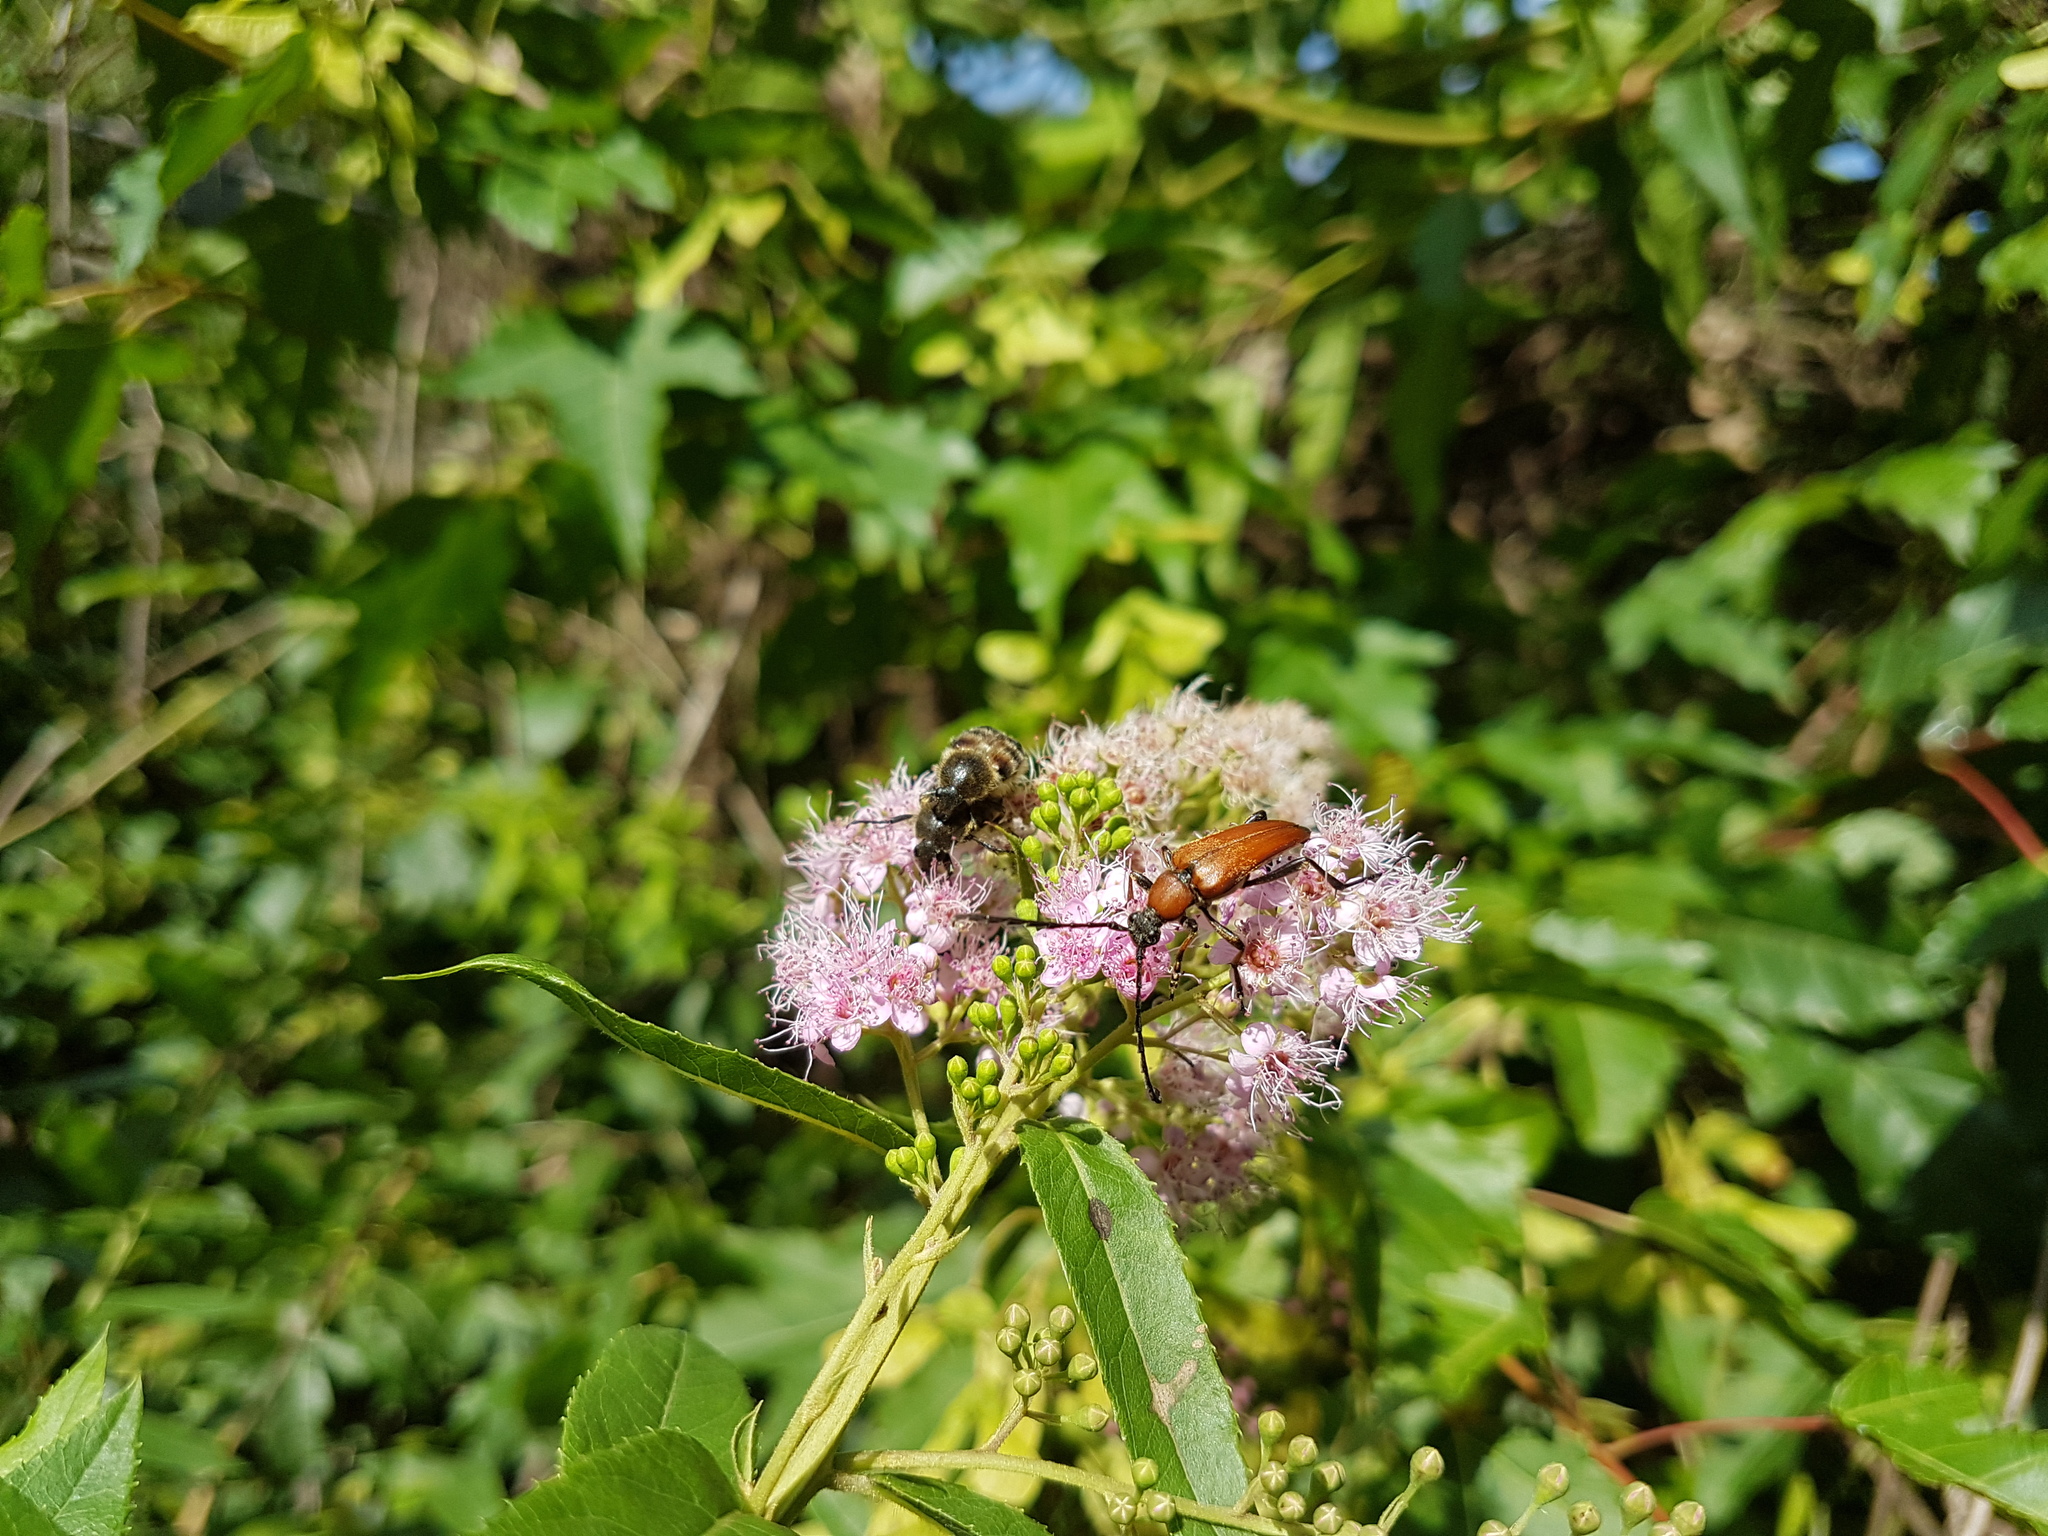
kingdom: Animalia
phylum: Arthropoda
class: Insecta
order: Coleoptera
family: Cerambycidae
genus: Stictoleptura
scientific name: Stictoleptura dichroa
